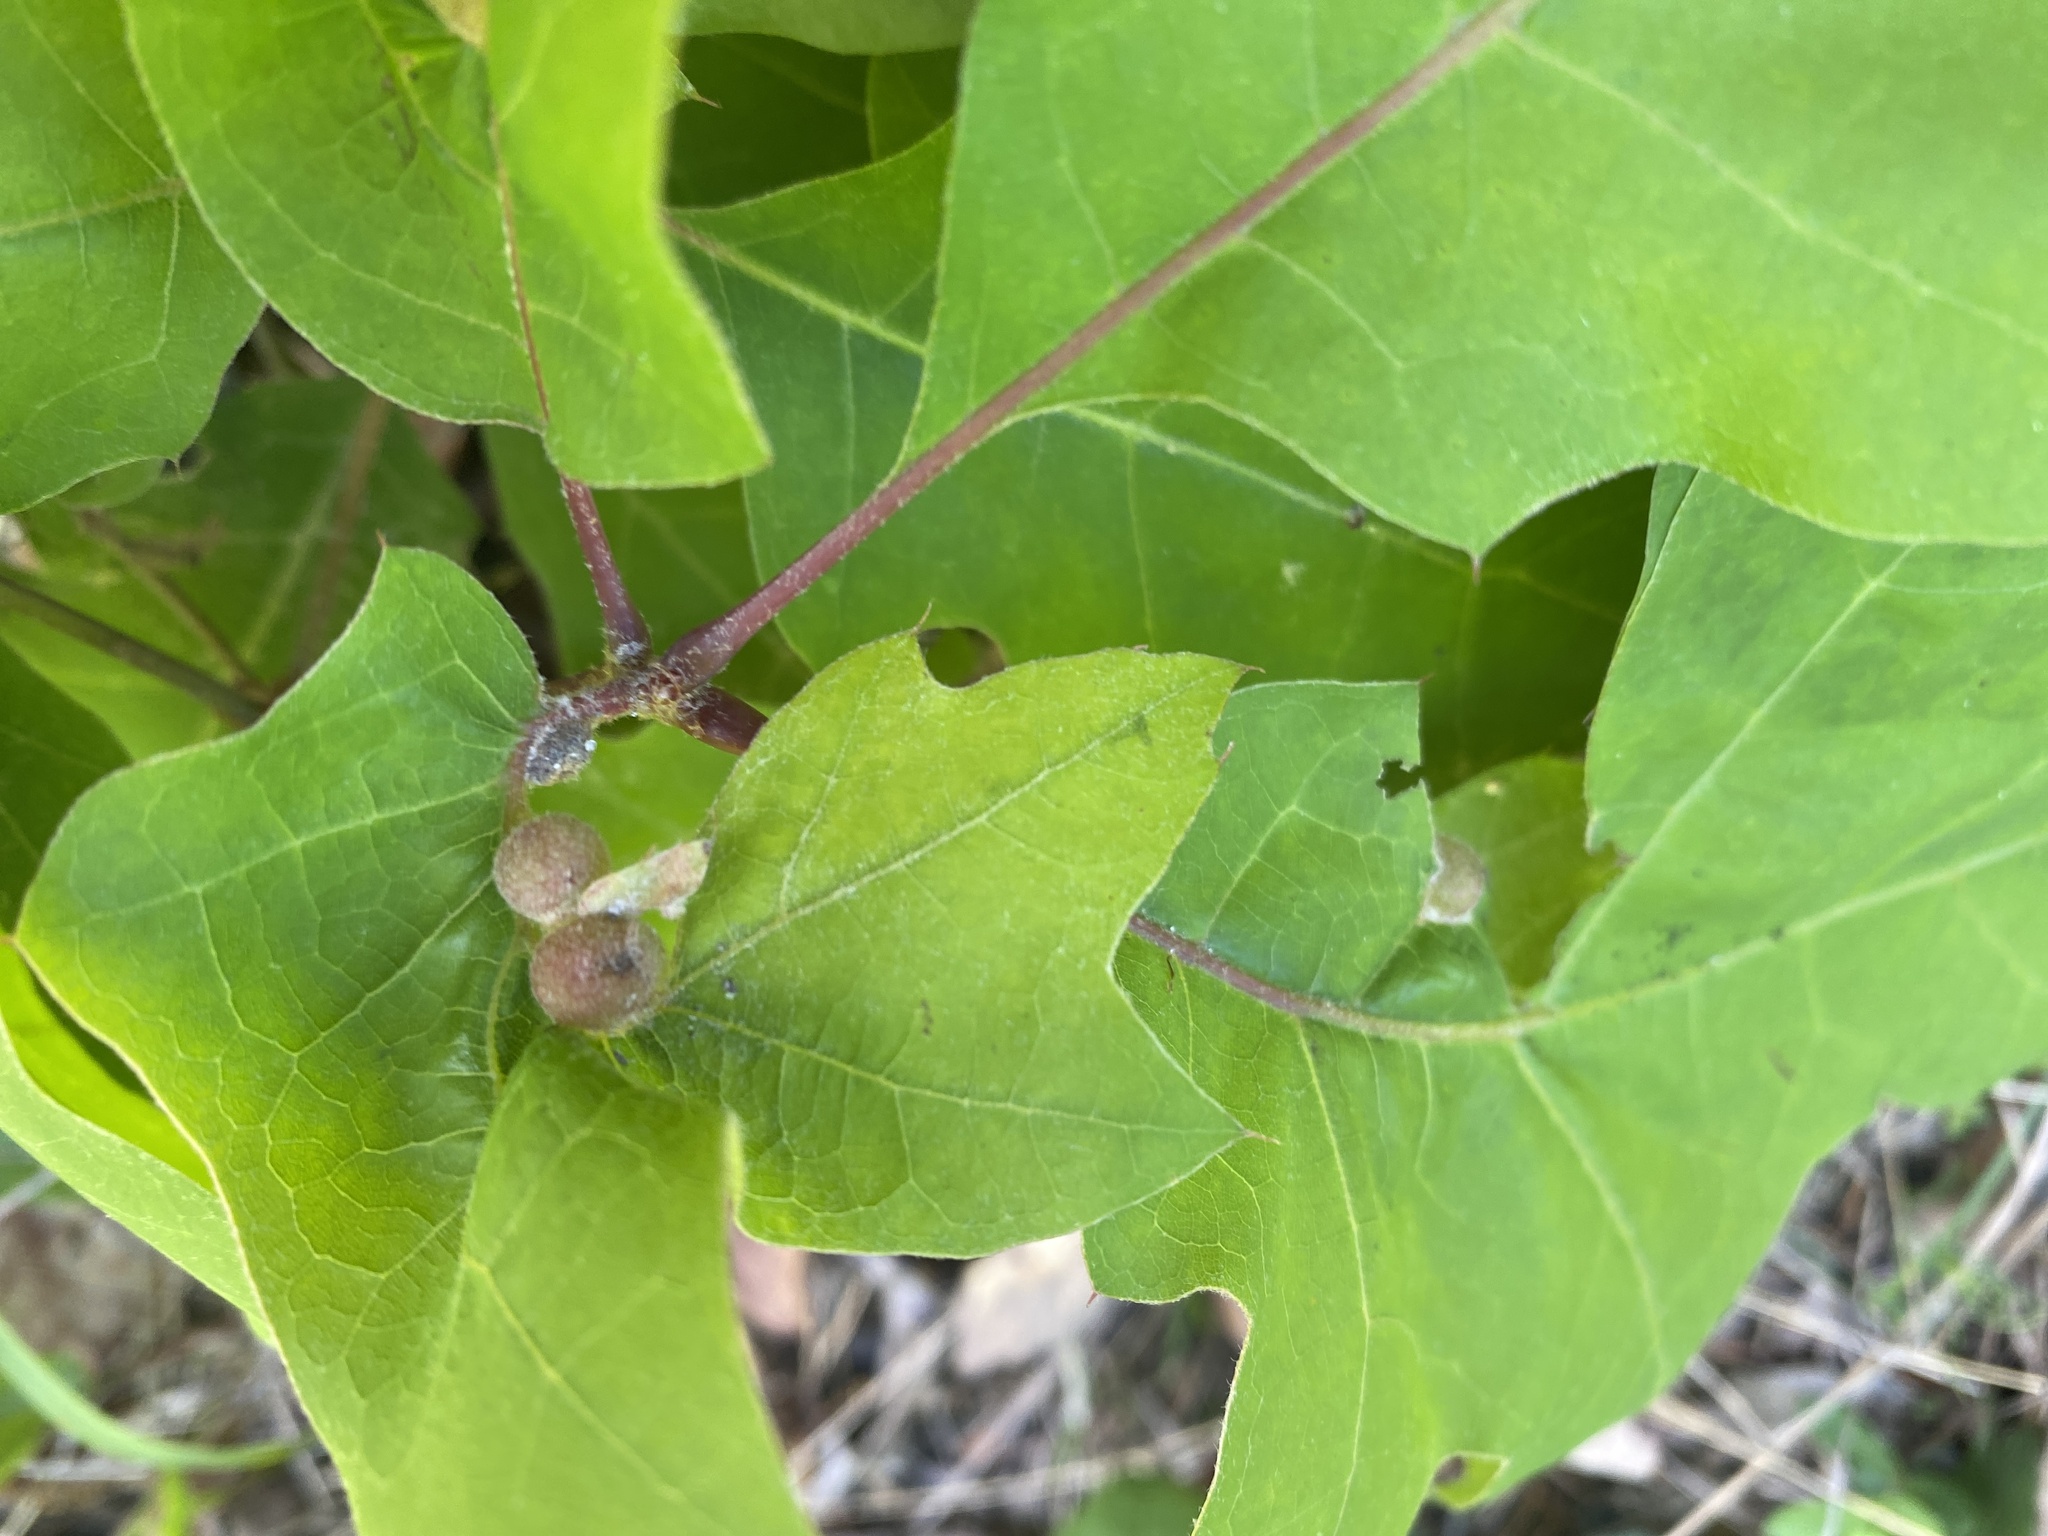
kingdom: Animalia
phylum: Arthropoda
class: Insecta
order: Hymenoptera
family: Cynipidae
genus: Dryocosmus
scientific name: Dryocosmus quercuspalustris
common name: Succulent oak gall wasp
